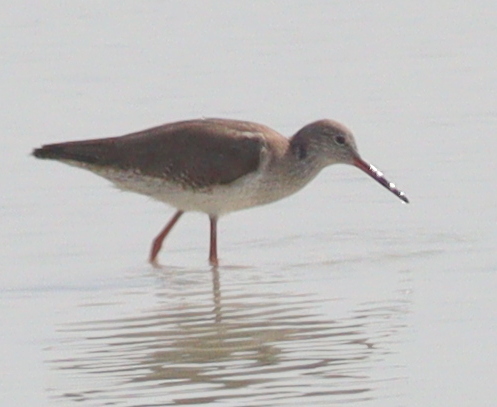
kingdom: Animalia
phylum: Chordata
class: Aves
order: Charadriiformes
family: Scolopacidae
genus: Tringa
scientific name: Tringa totanus
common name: Common redshank
